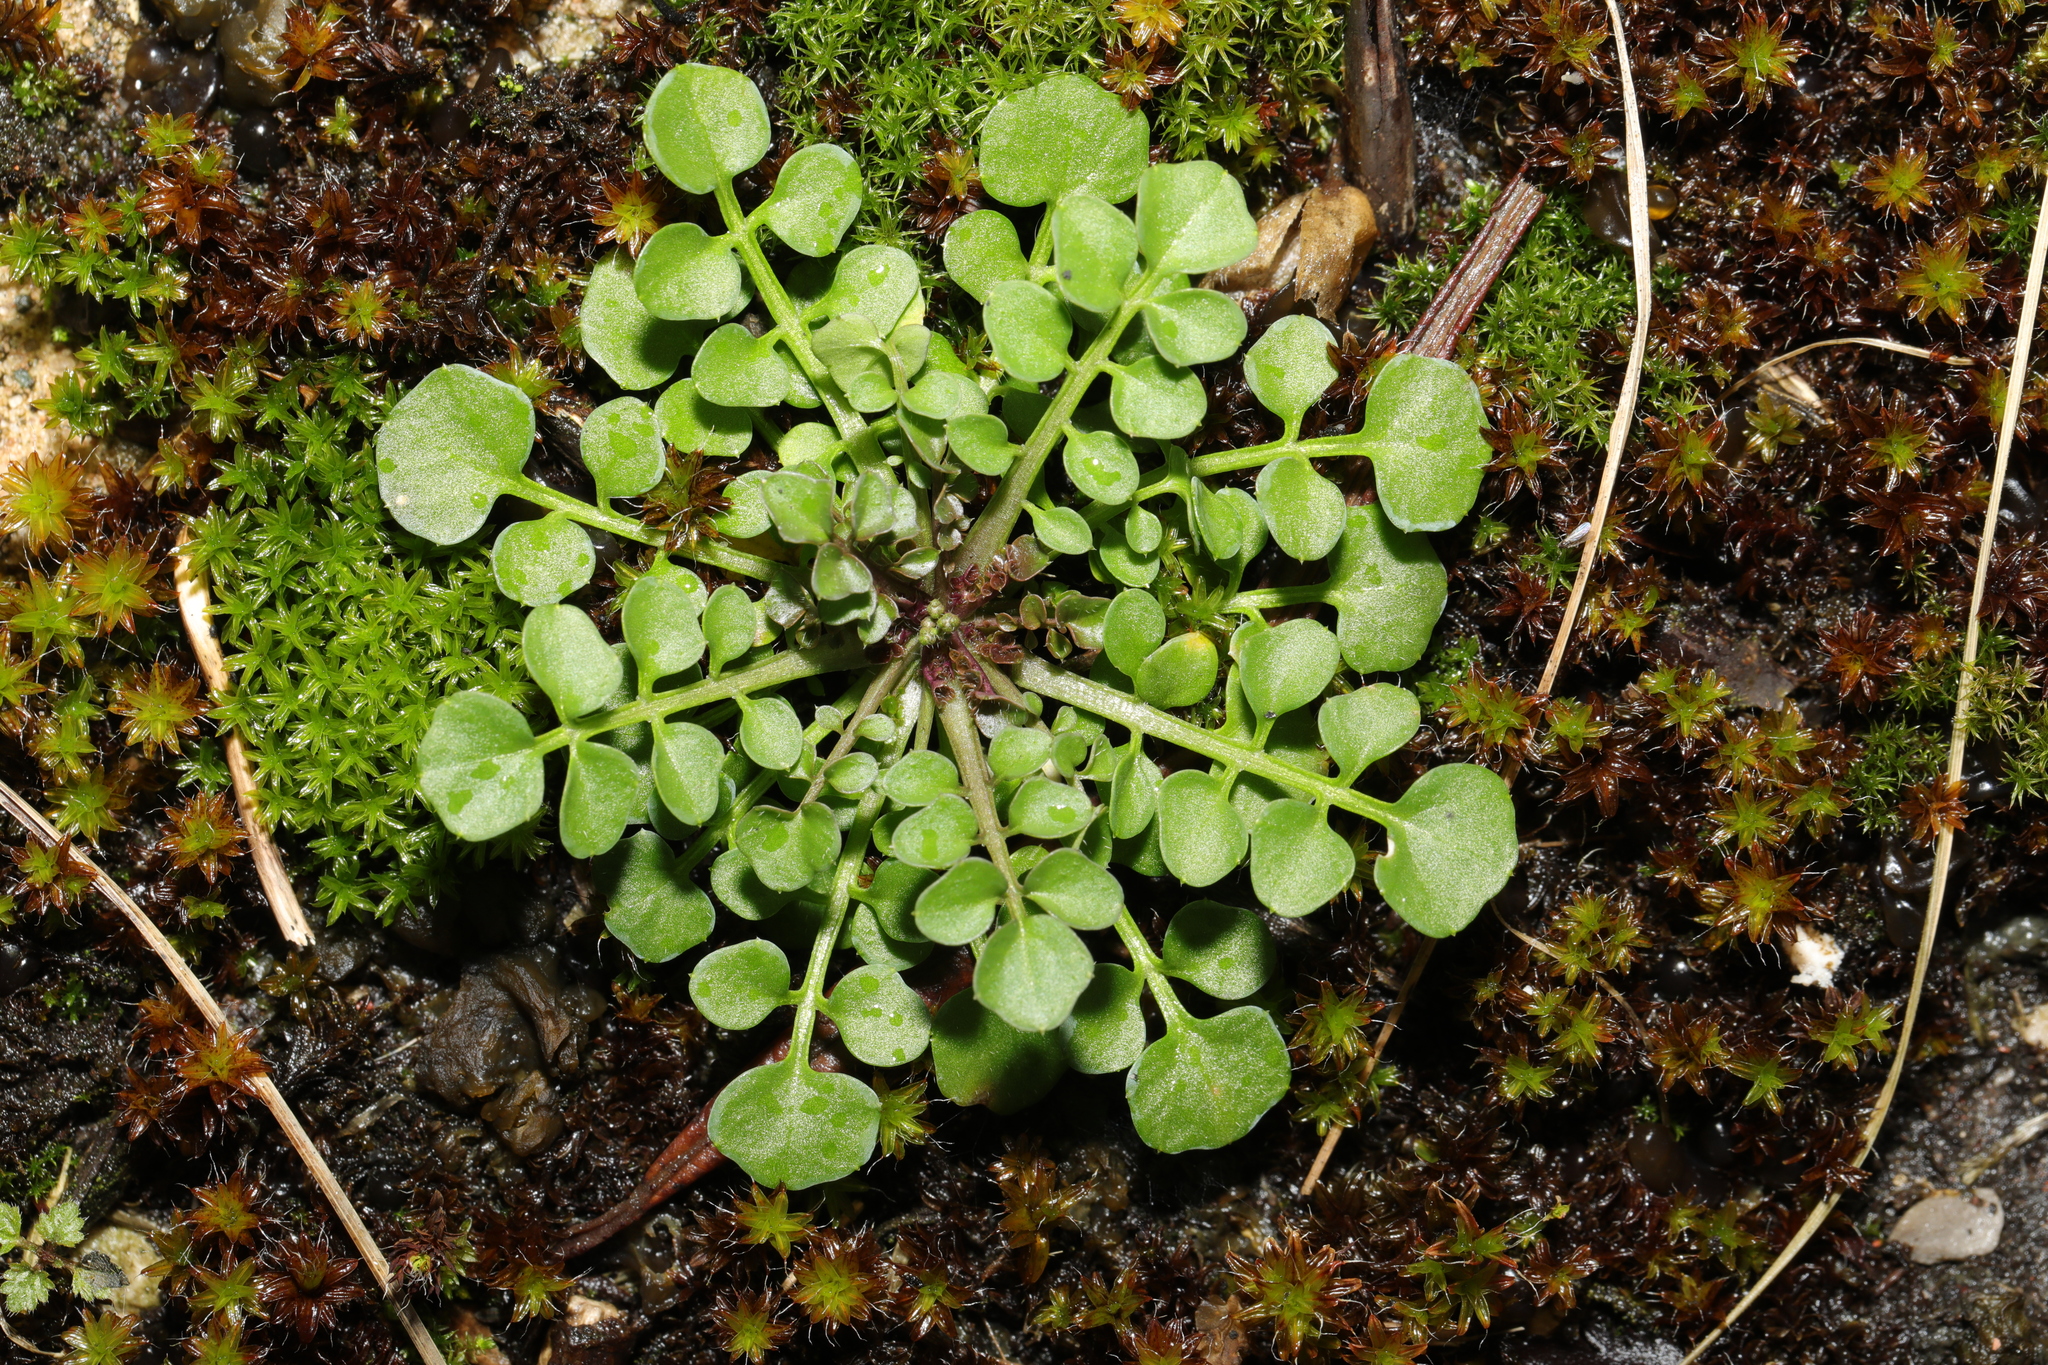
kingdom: Plantae
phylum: Tracheophyta
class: Magnoliopsida
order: Brassicales
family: Brassicaceae
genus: Cardamine
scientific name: Cardamine hirsuta
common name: Hairy bittercress
